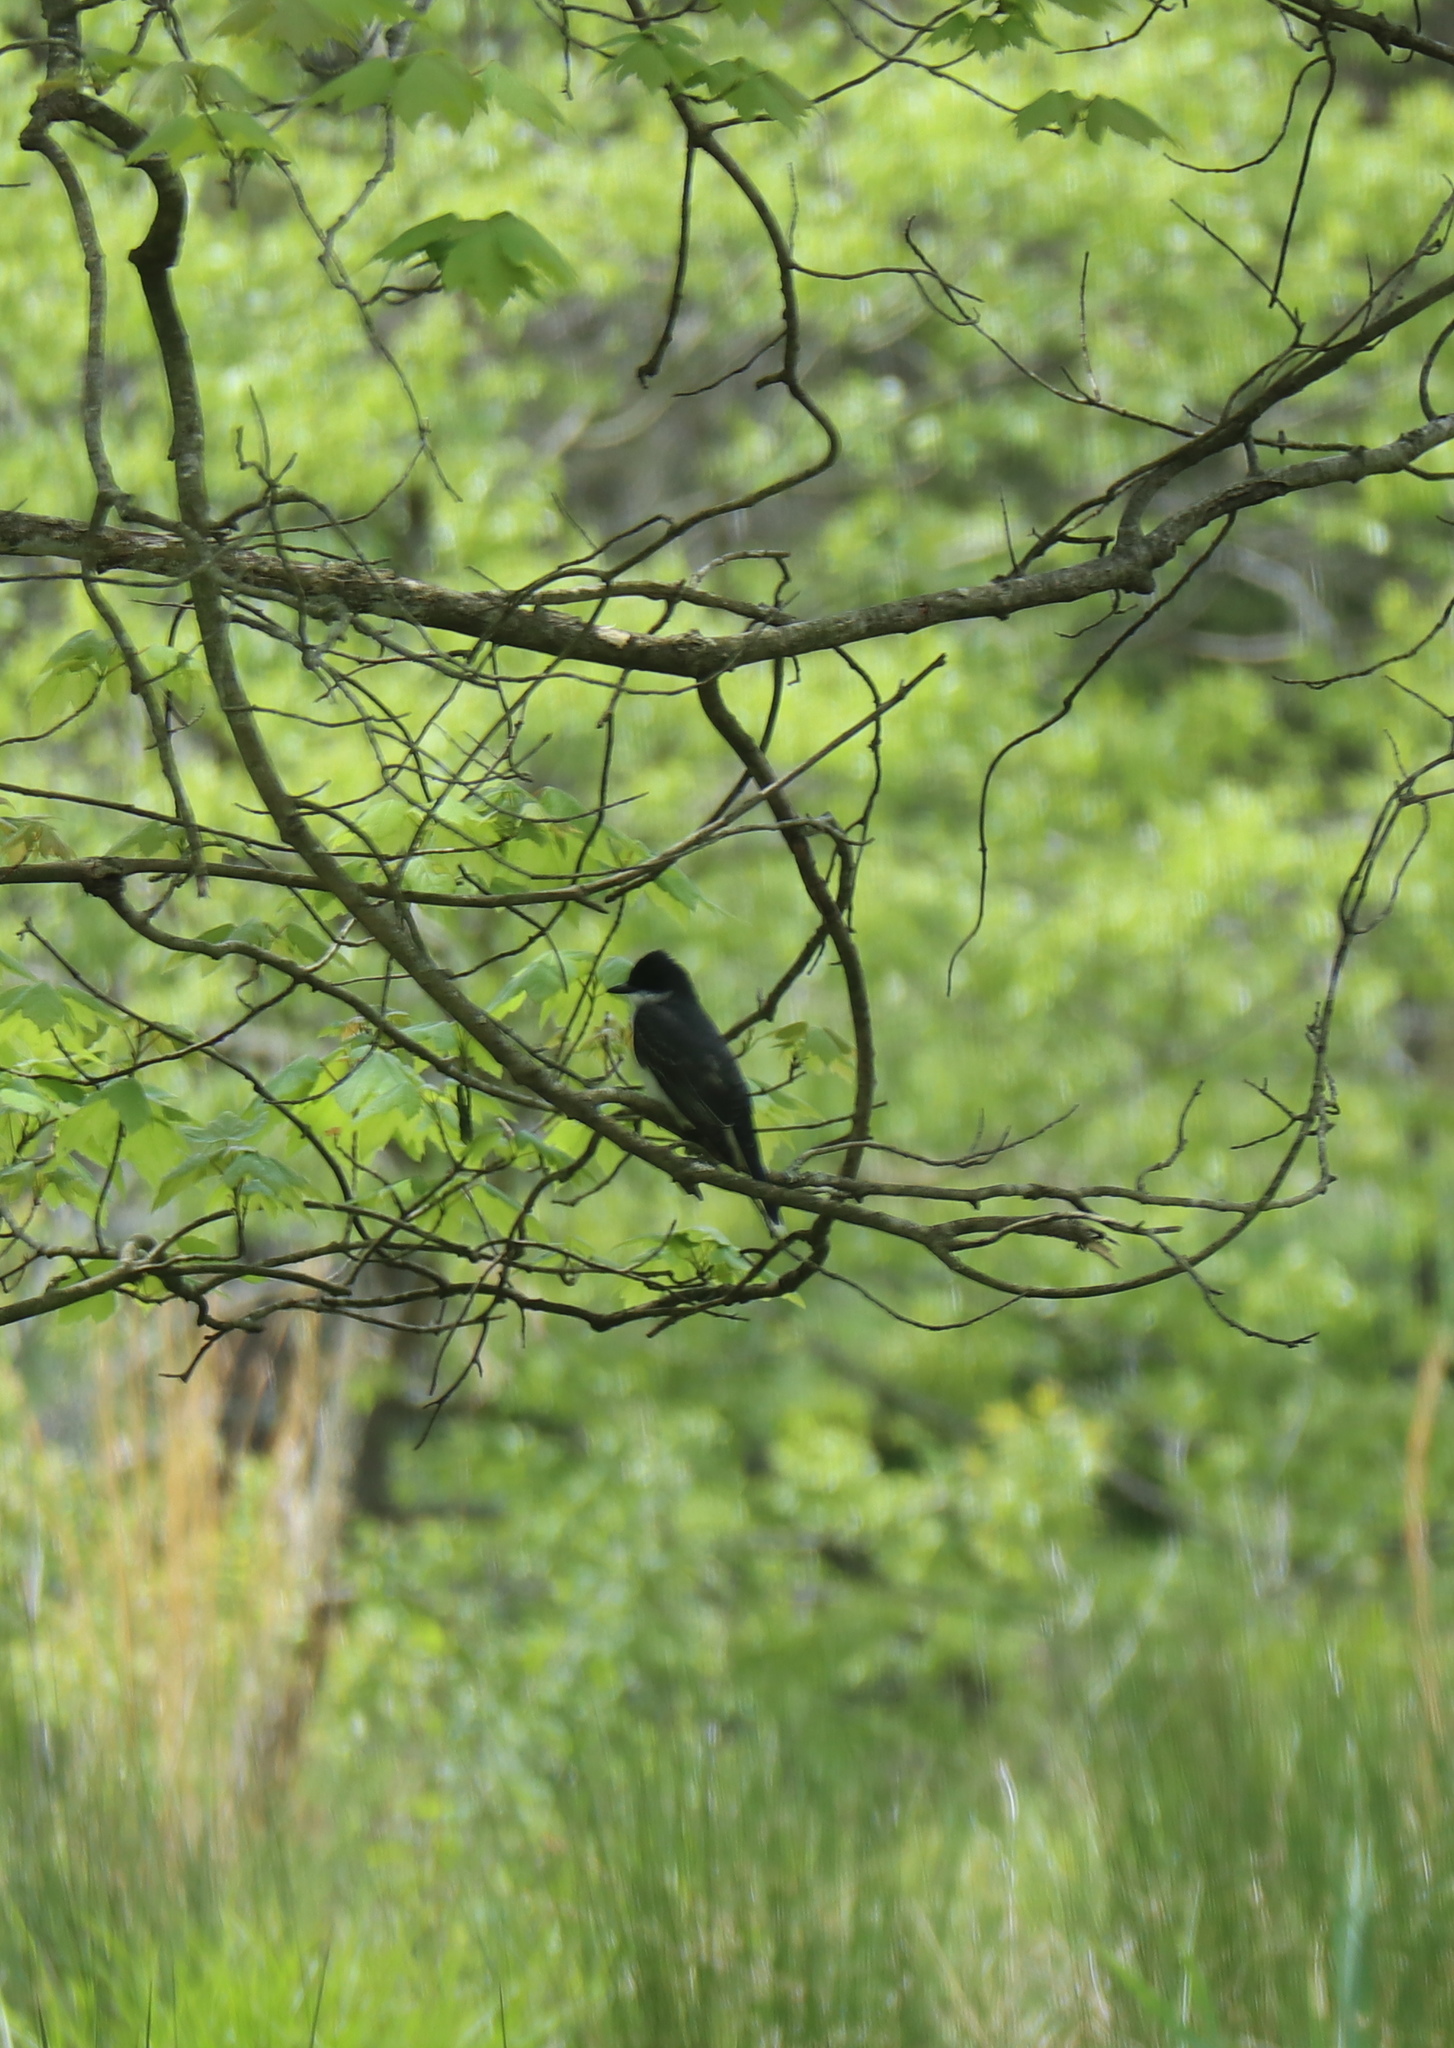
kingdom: Animalia
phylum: Chordata
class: Aves
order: Passeriformes
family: Tyrannidae
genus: Tyrannus
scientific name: Tyrannus tyrannus
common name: Eastern kingbird
